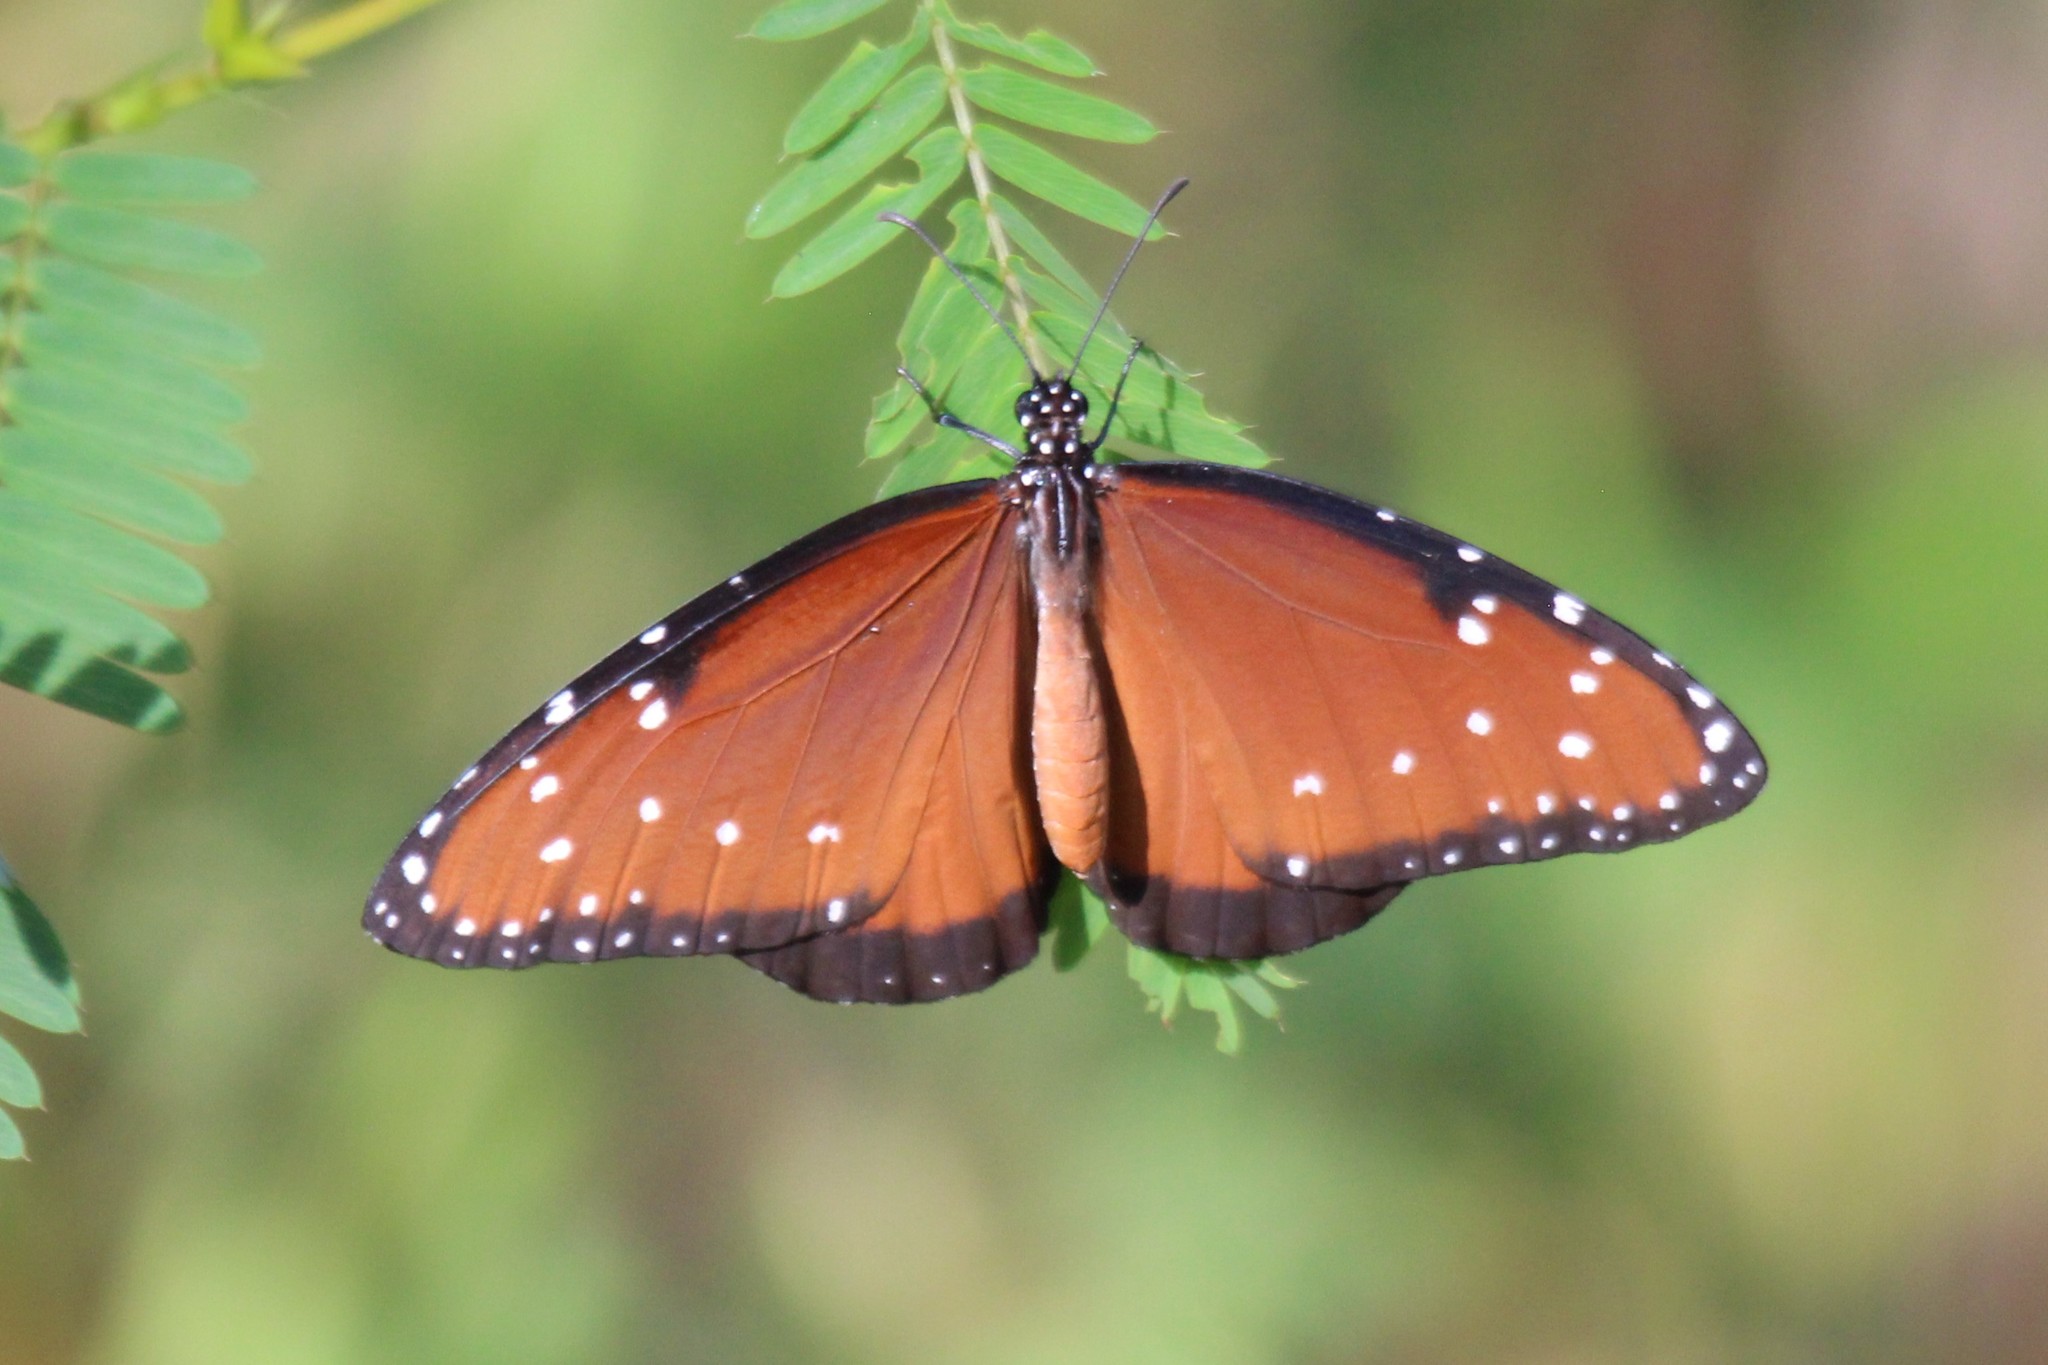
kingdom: Animalia
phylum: Arthropoda
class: Insecta
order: Lepidoptera
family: Nymphalidae
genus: Danaus
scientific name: Danaus gilippus
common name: Queen
